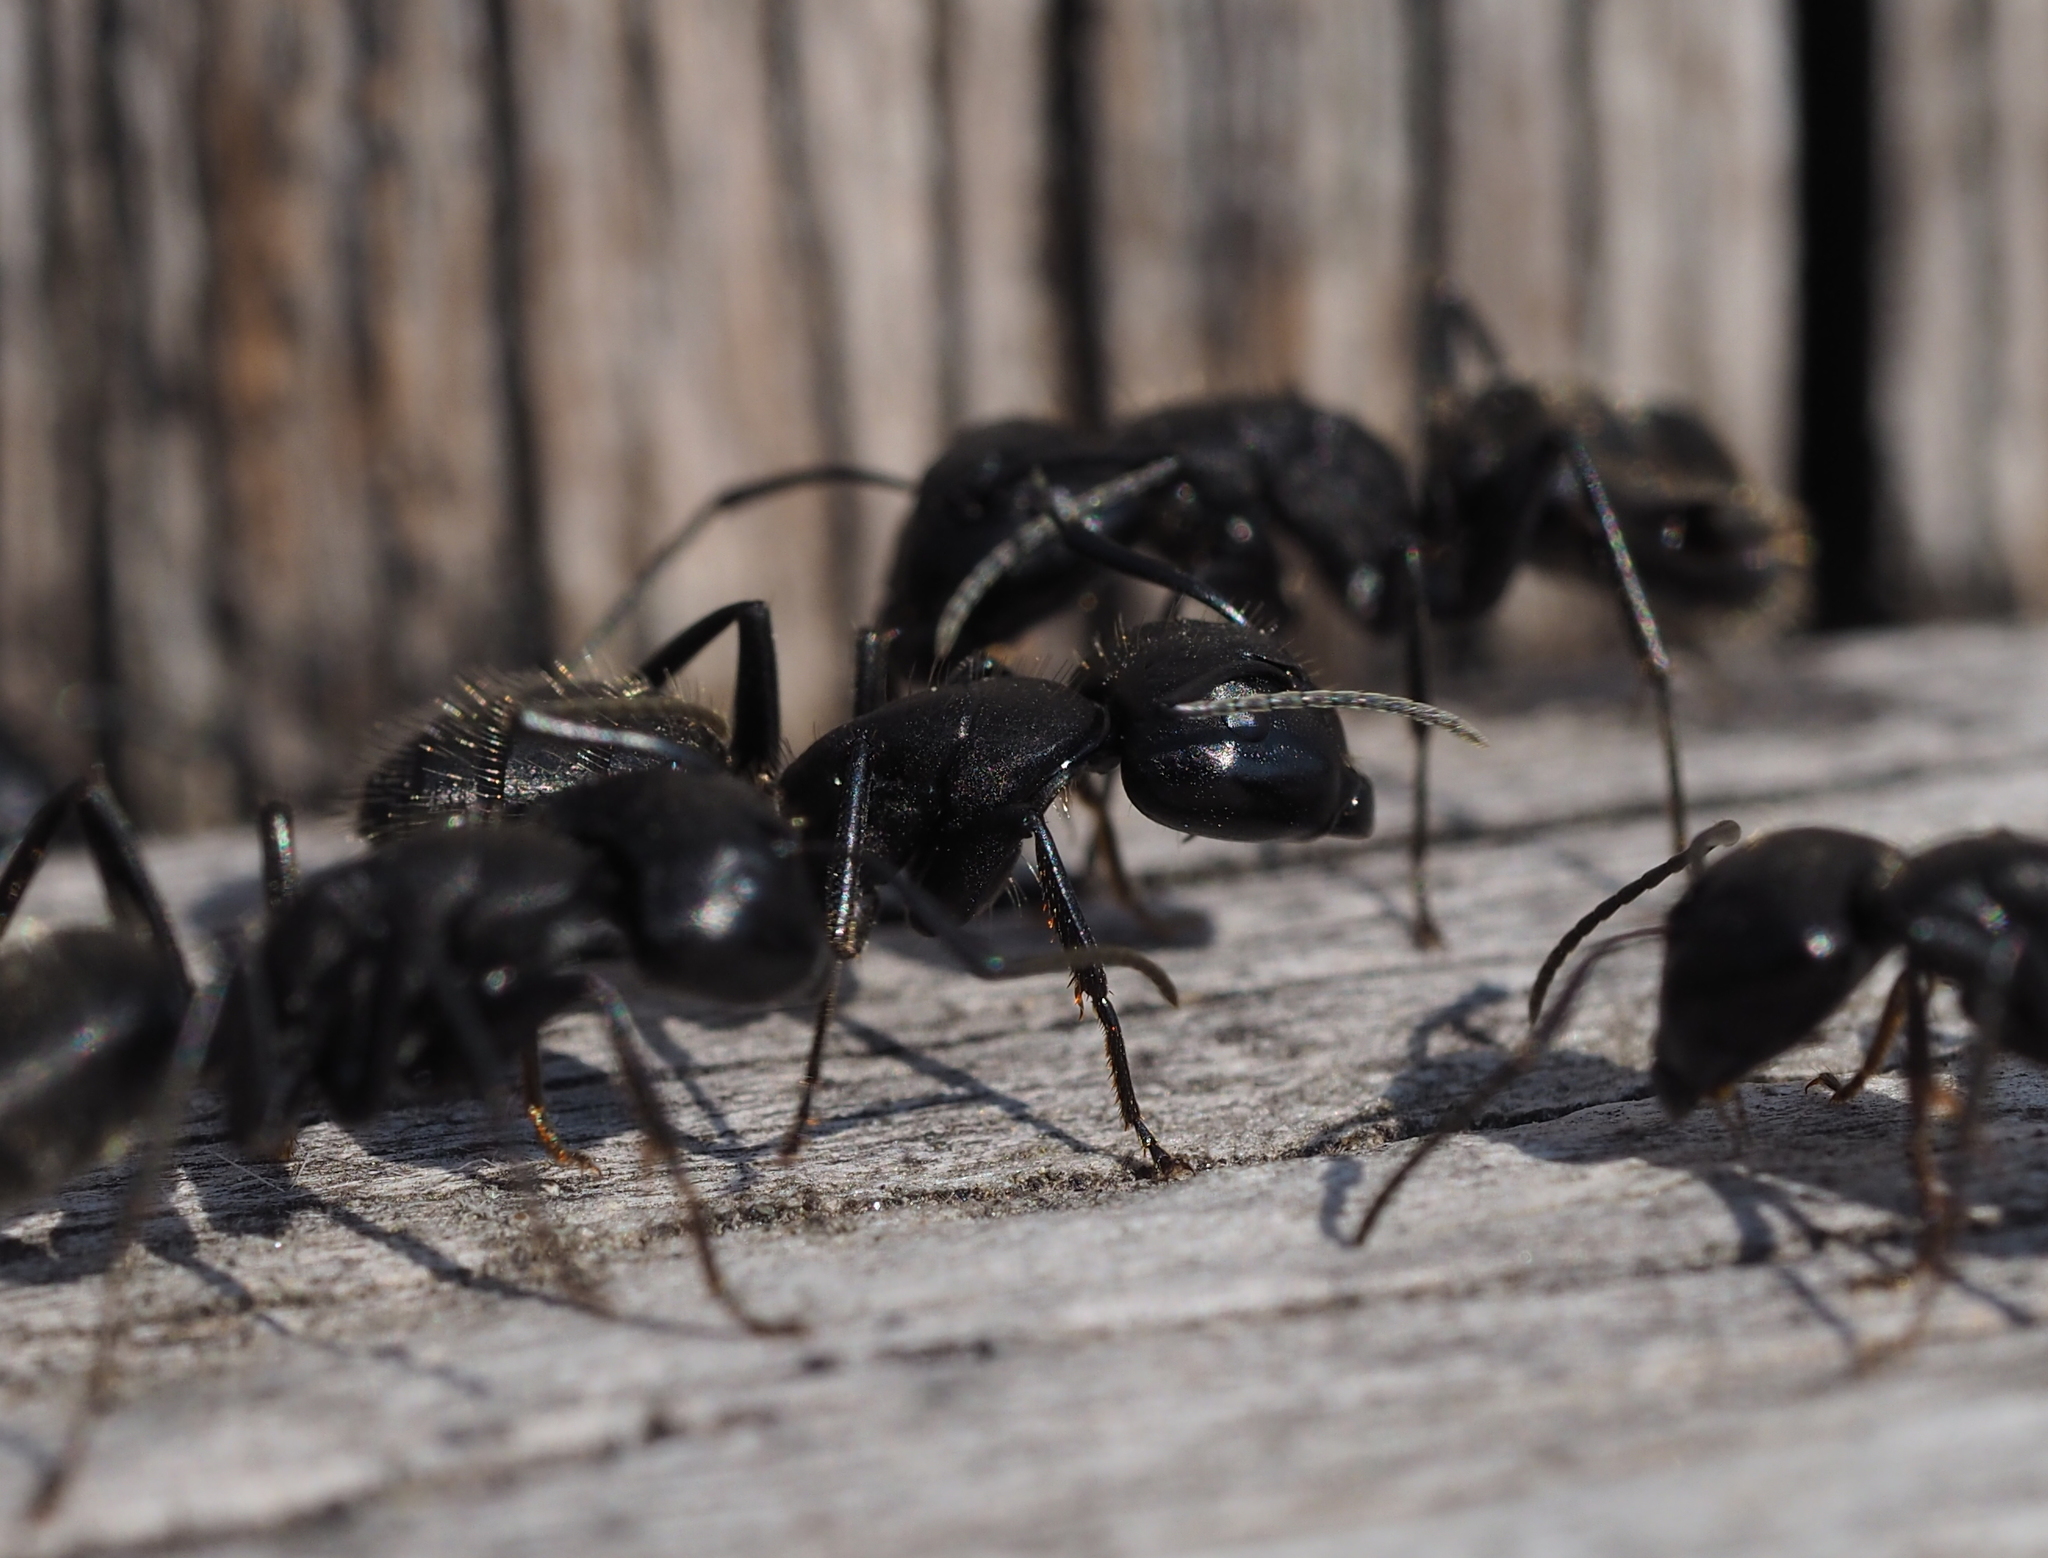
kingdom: Animalia
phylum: Arthropoda
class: Insecta
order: Hymenoptera
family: Formicidae
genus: Camponotus
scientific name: Camponotus vagus
